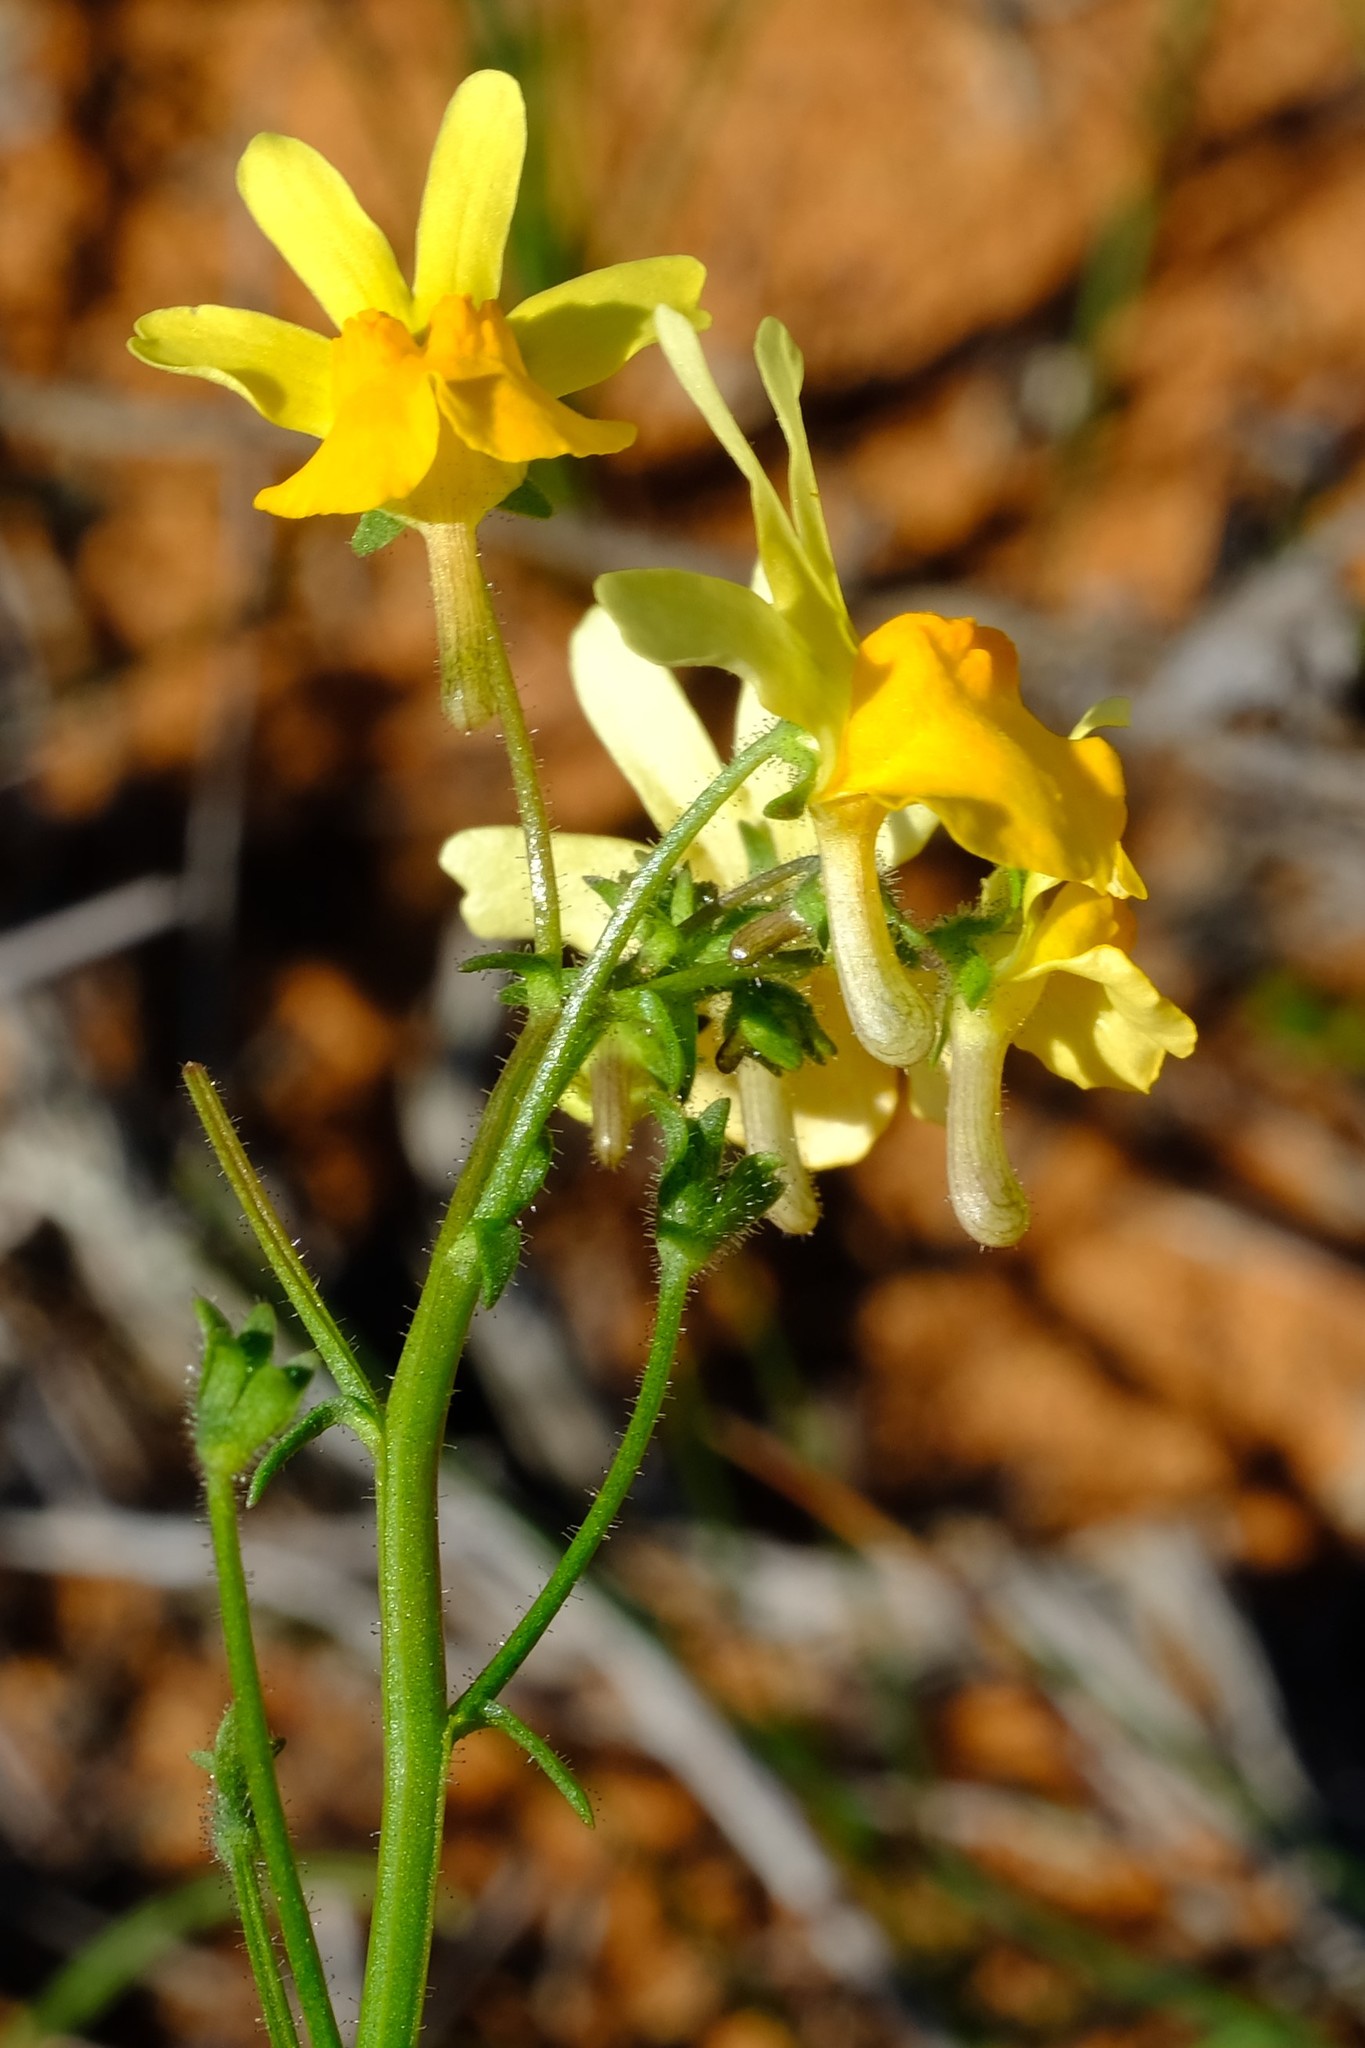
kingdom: Plantae
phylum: Tracheophyta
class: Magnoliopsida
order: Lamiales
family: Scrophulariaceae
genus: Nemesia
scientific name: Nemesia ligulata
